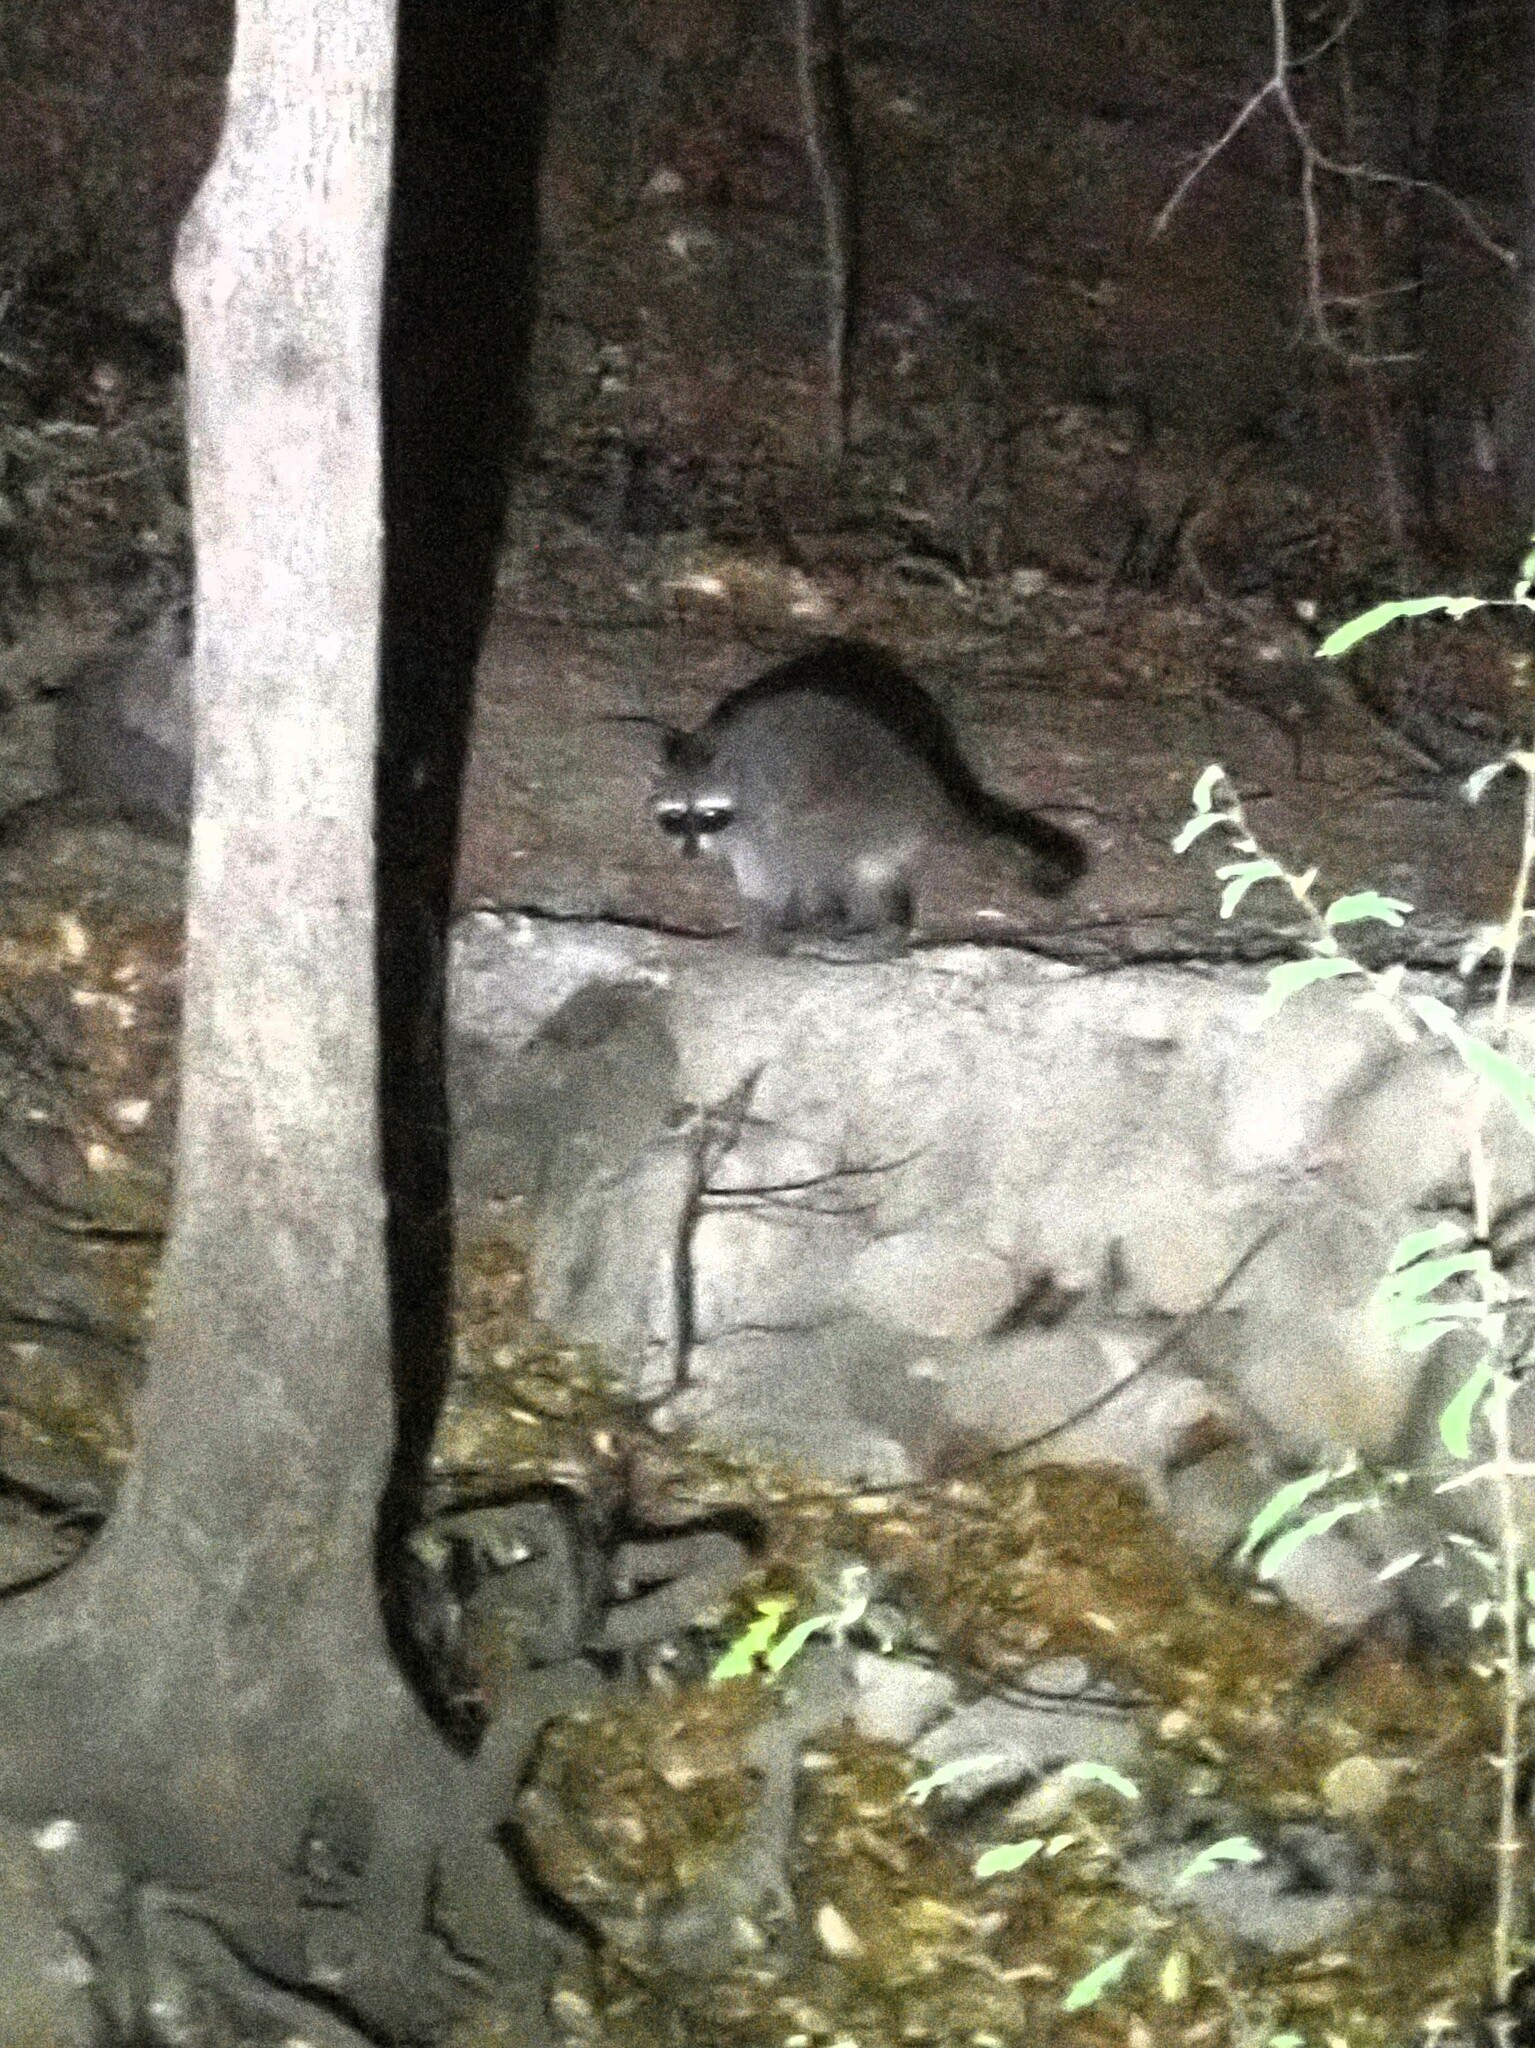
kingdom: Animalia
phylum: Chordata
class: Mammalia
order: Carnivora
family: Procyonidae
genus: Procyon
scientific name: Procyon lotor
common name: Raccoon
